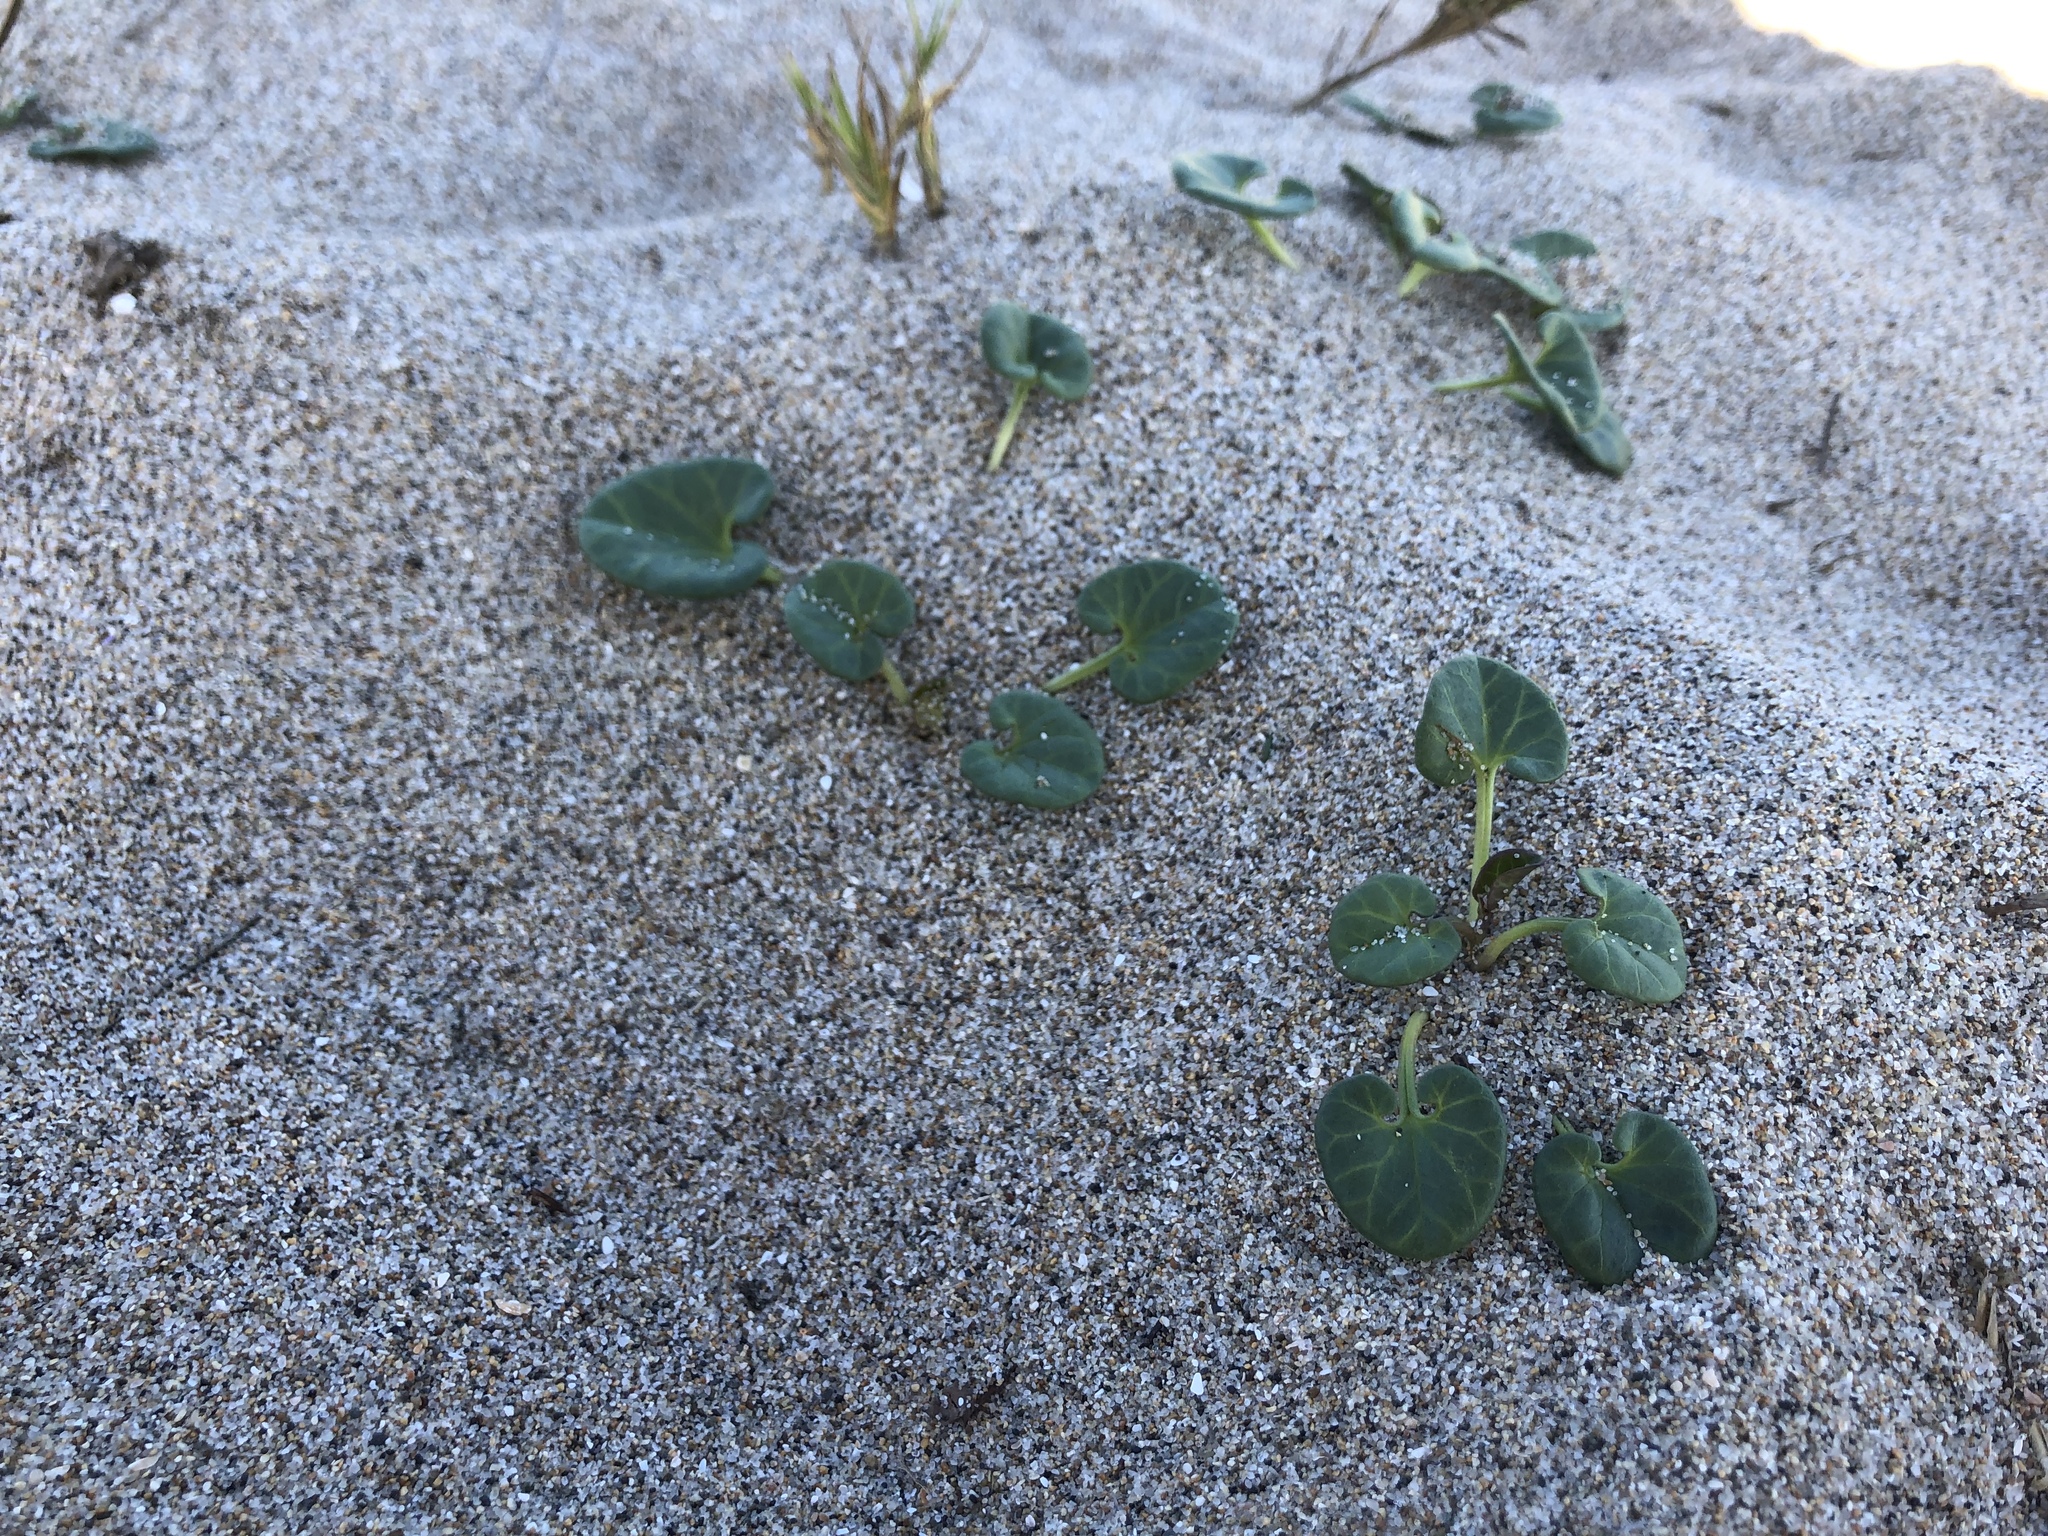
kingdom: Plantae
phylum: Tracheophyta
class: Magnoliopsida
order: Solanales
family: Convolvulaceae
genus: Calystegia
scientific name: Calystegia soldanella
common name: Sea bindweed
